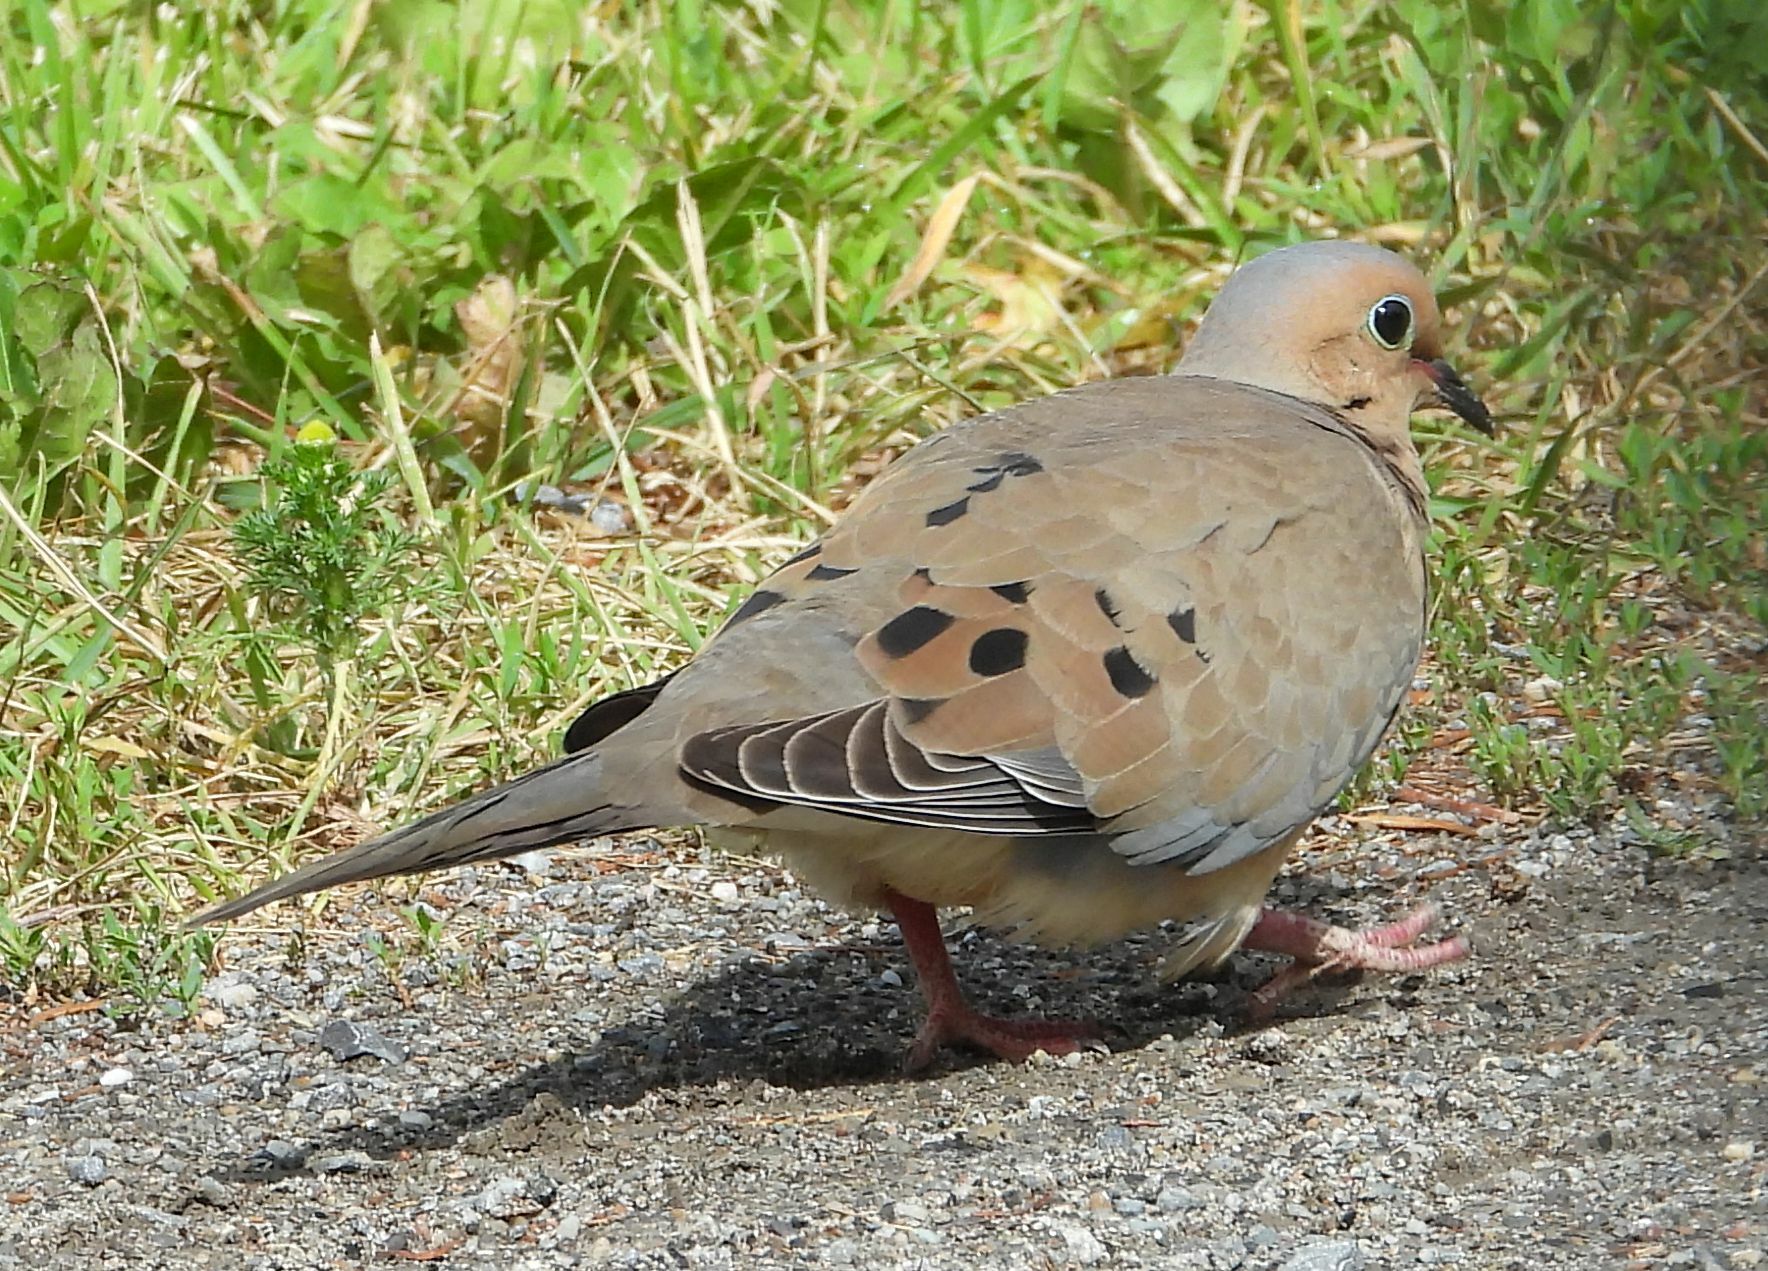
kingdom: Animalia
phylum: Chordata
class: Aves
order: Columbiformes
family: Columbidae
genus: Zenaida
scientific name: Zenaida macroura
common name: Mourning dove
